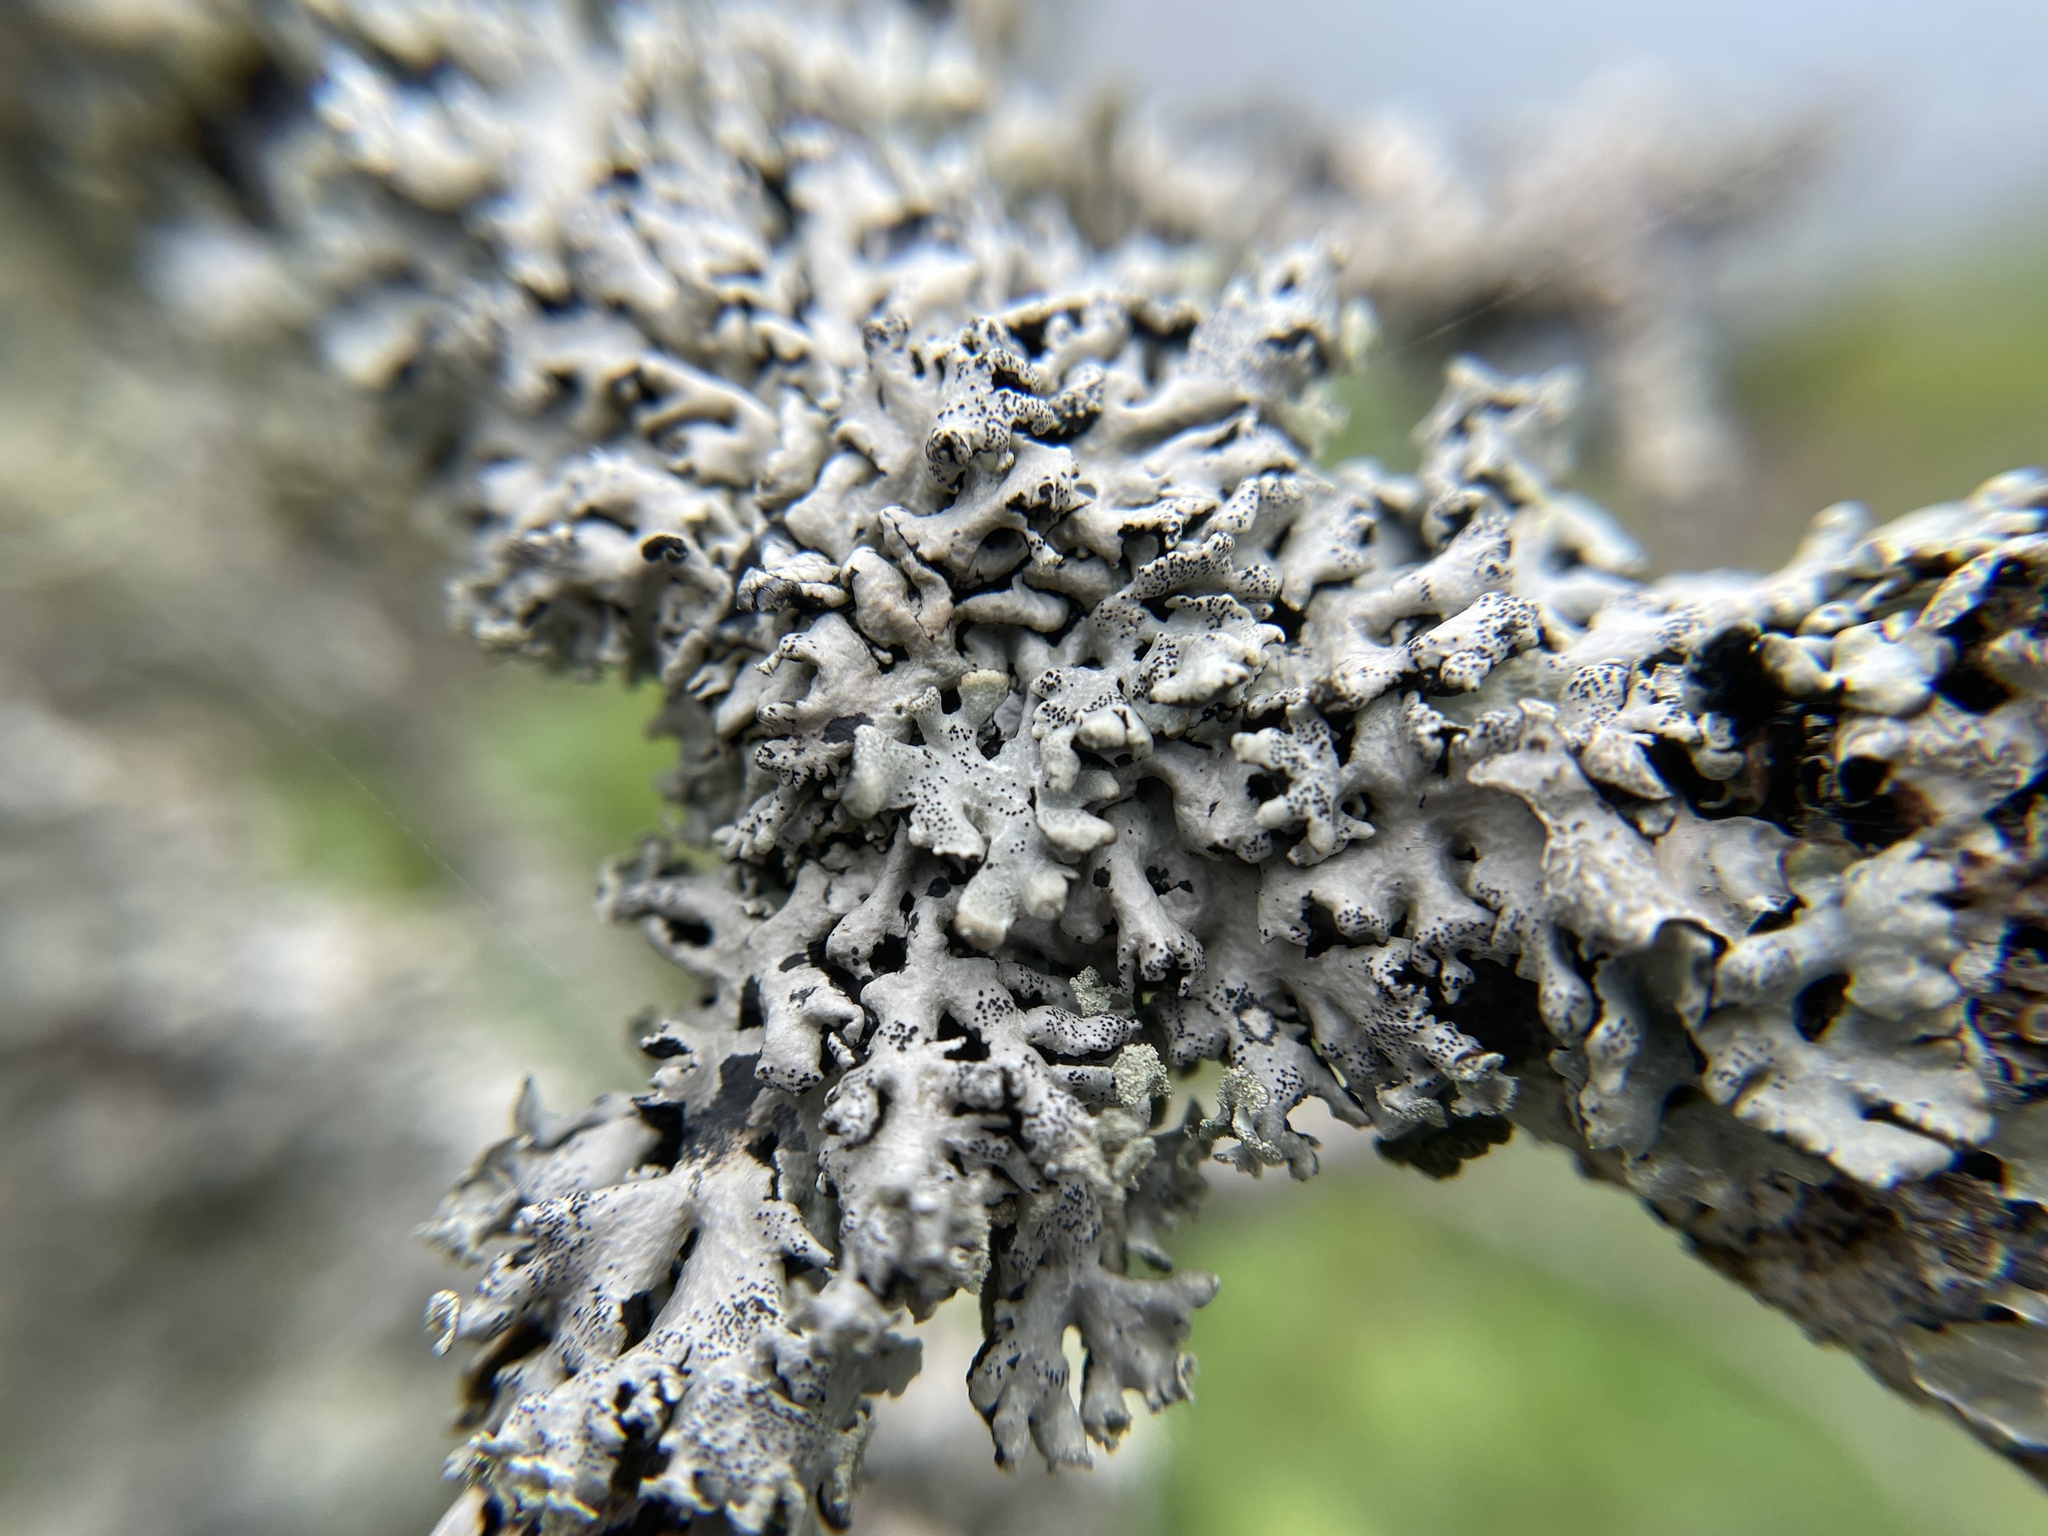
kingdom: Fungi
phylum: Ascomycota
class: Lecanoromycetes
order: Lecanorales
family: Parmeliaceae
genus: Hypogymnia
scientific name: Hypogymnia physodes
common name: Dark crottle
